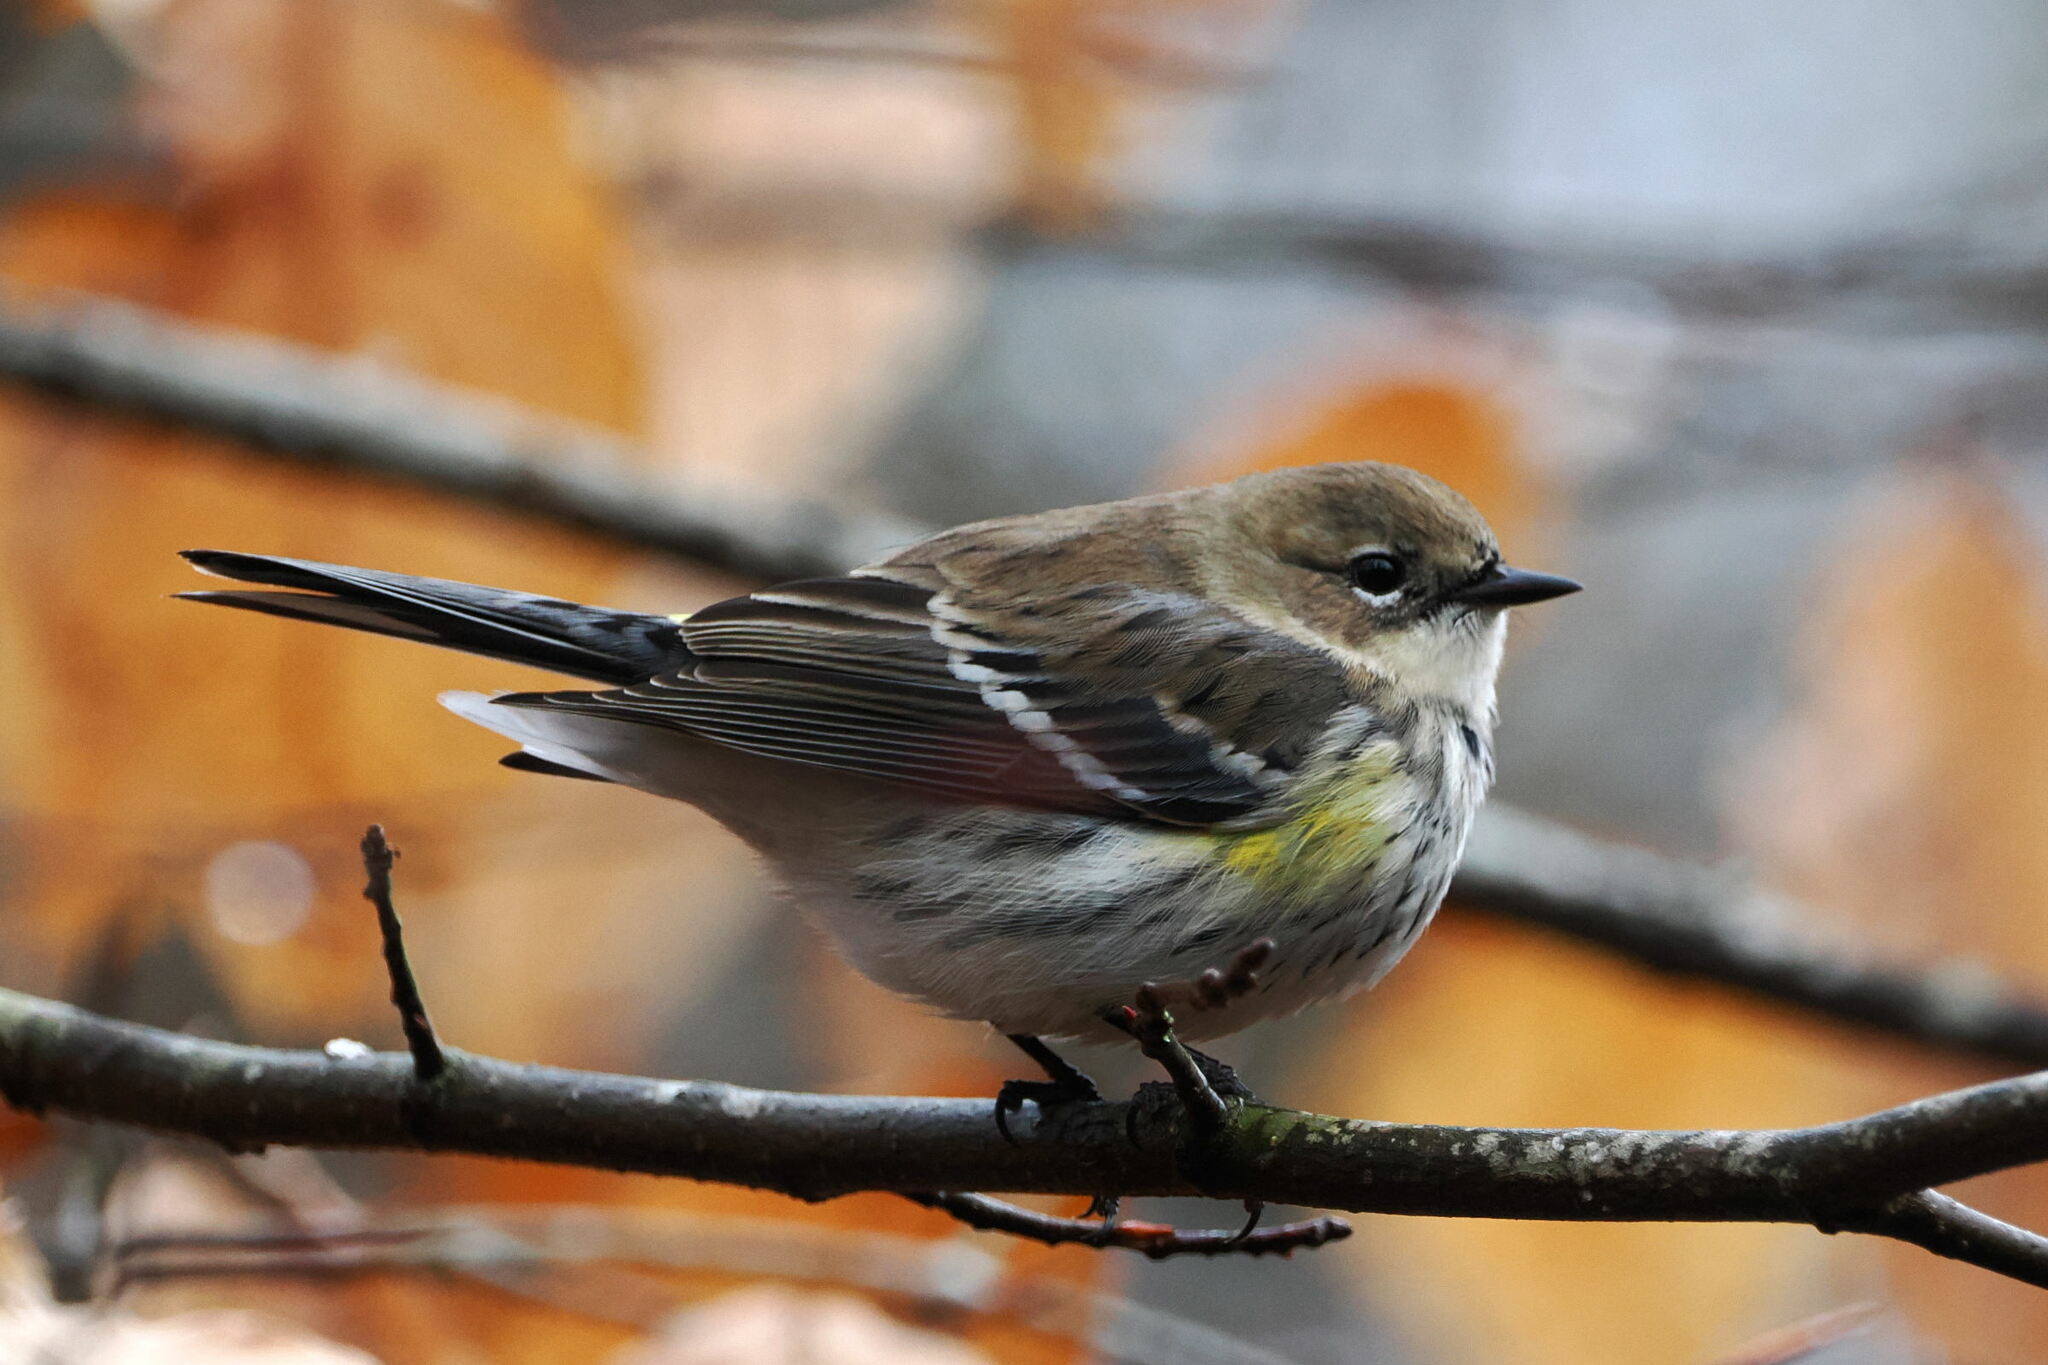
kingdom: Animalia
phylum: Chordata
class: Aves
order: Passeriformes
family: Parulidae
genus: Setophaga
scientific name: Setophaga coronata
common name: Myrtle warbler
